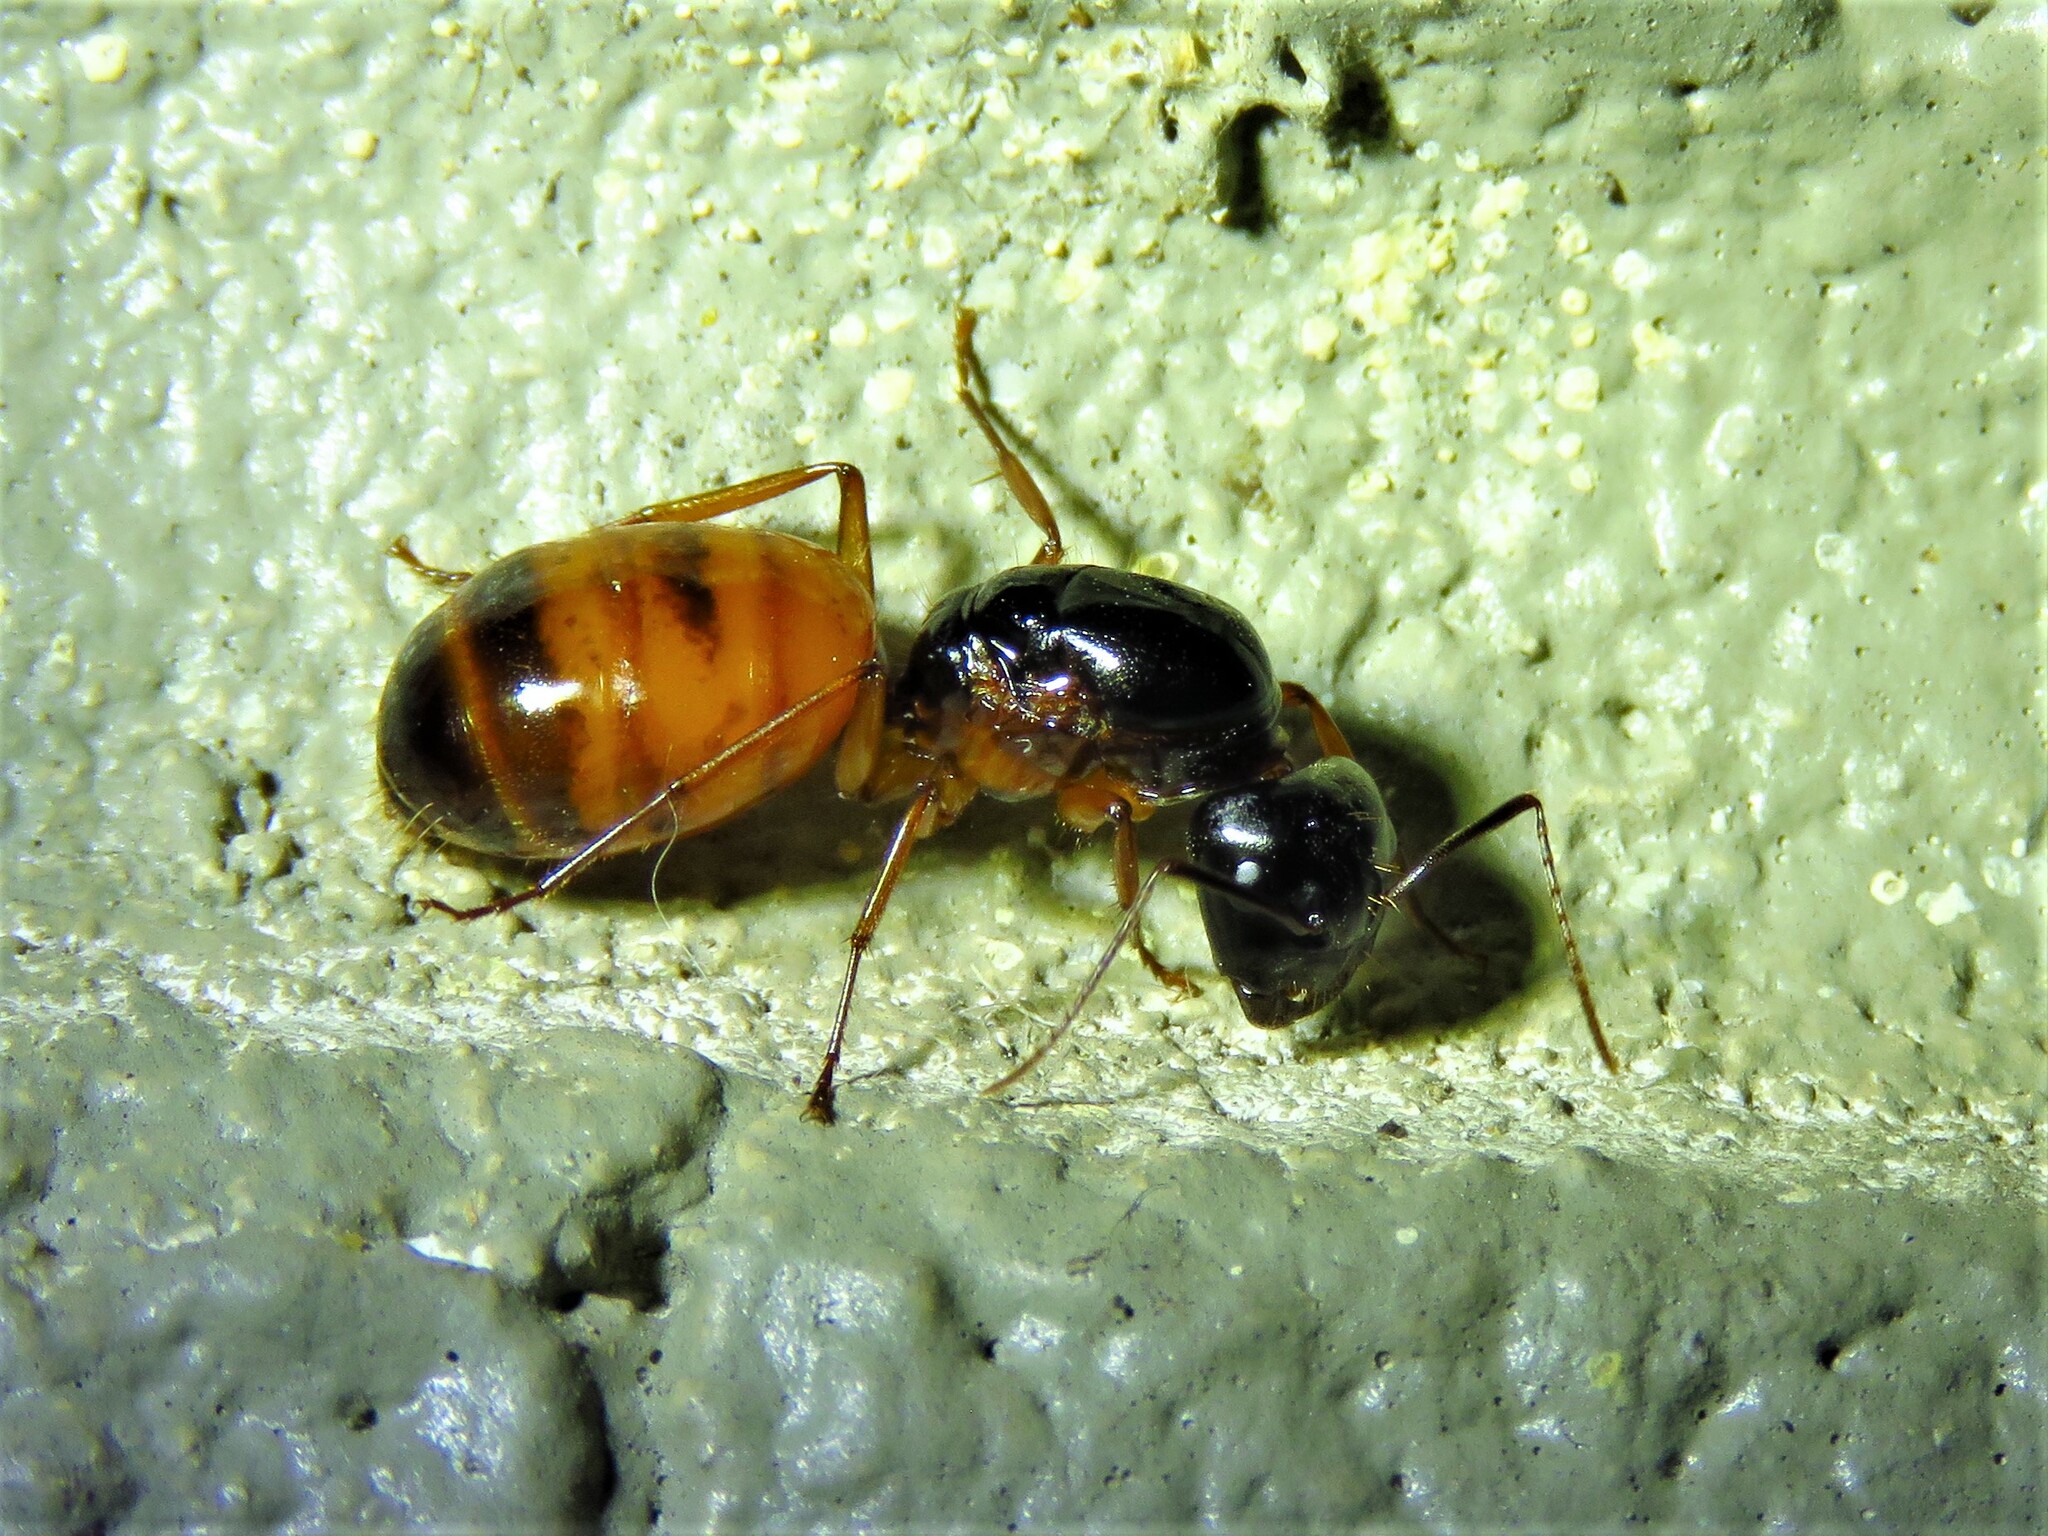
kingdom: Animalia
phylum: Arthropoda
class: Insecta
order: Hymenoptera
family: Formicidae
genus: Camponotus
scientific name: Camponotus sansabeanus
